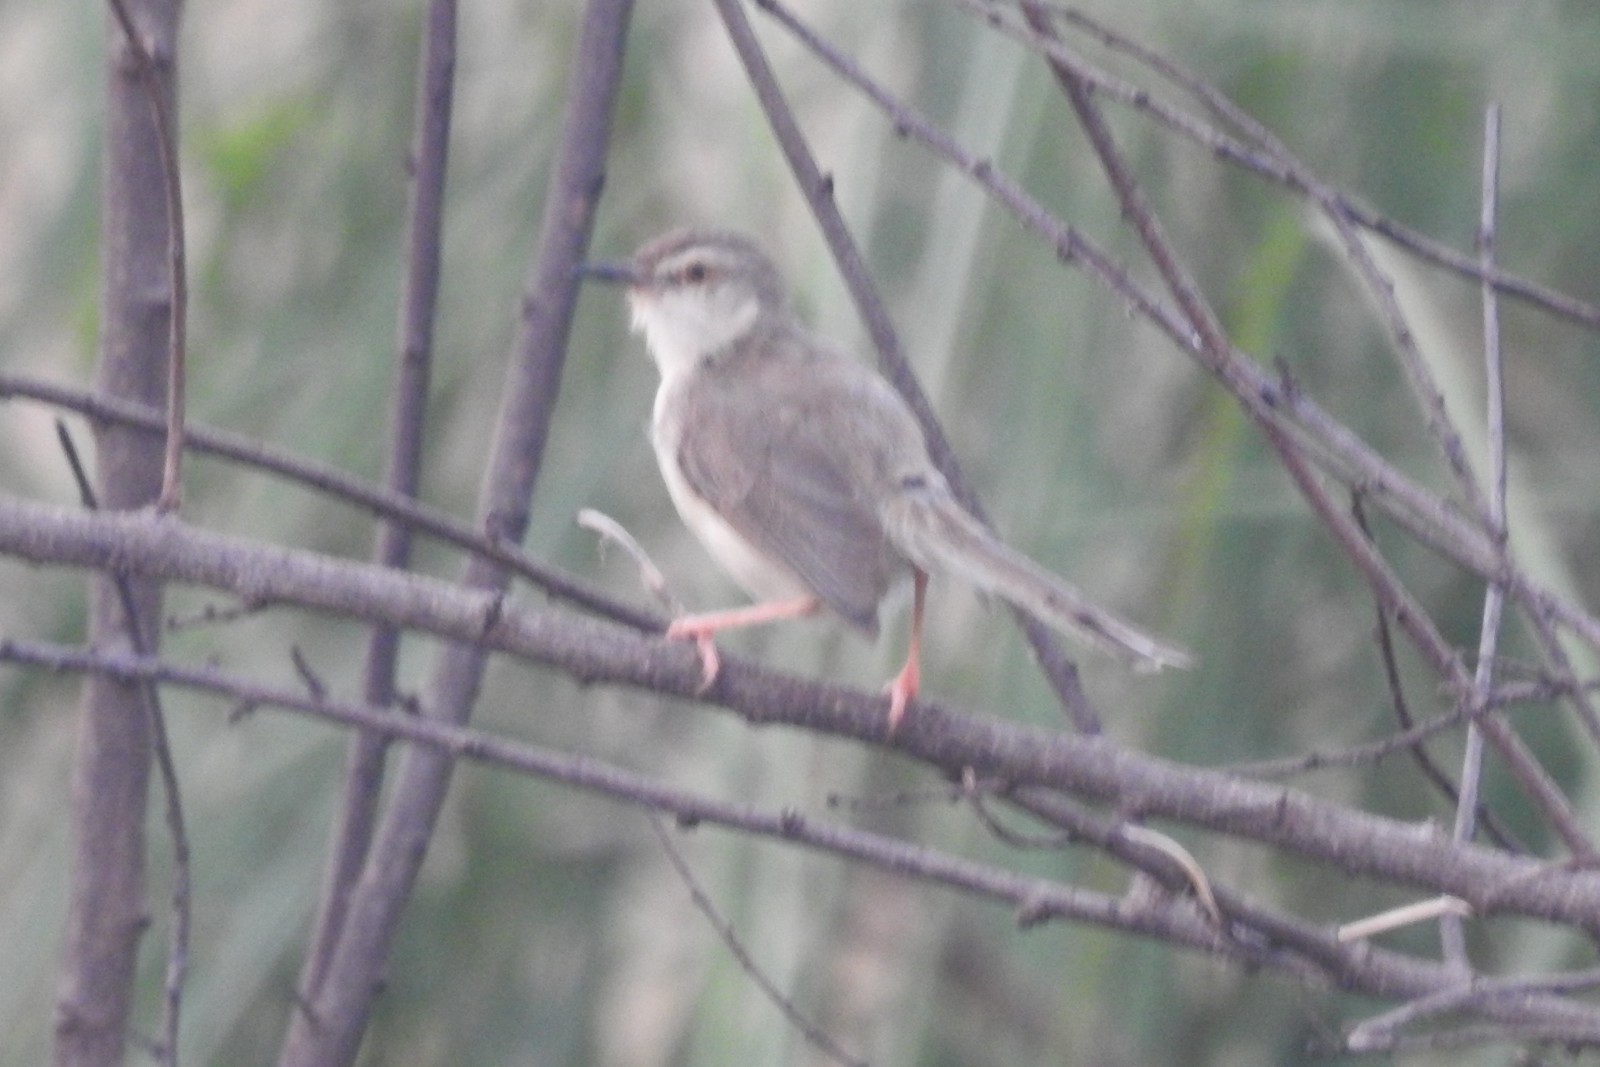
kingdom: Animalia
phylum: Chordata
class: Aves
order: Passeriformes
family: Cisticolidae
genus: Prinia
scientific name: Prinia inornata
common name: Plain prinia
